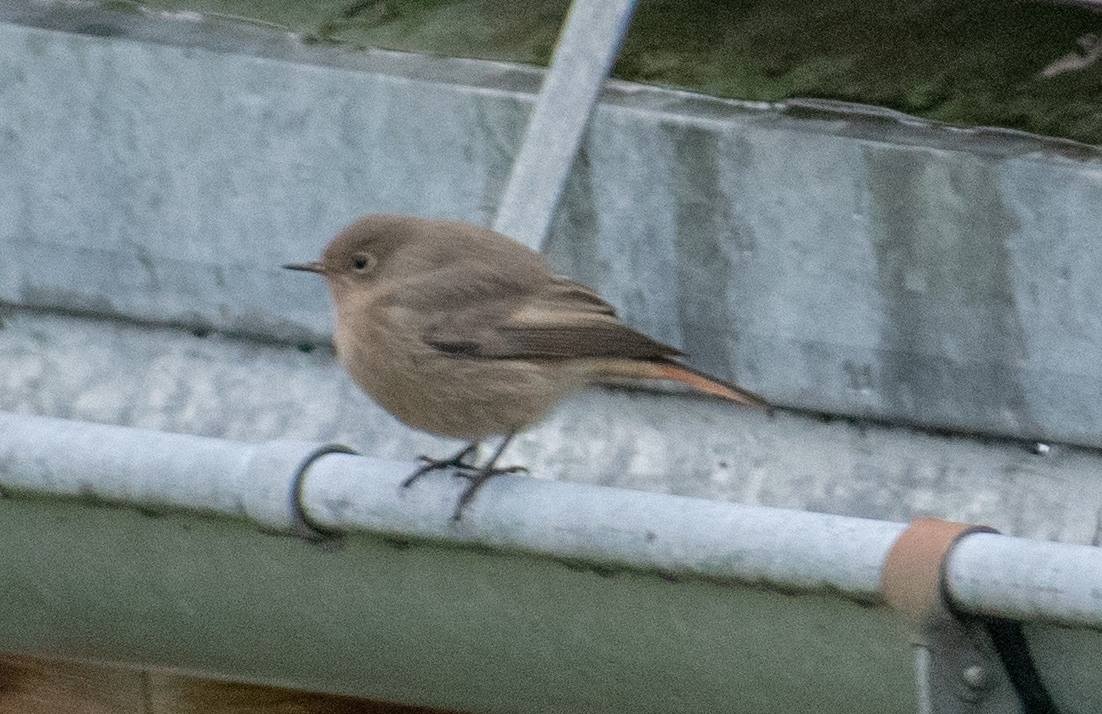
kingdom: Animalia
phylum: Chordata
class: Aves
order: Passeriformes
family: Muscicapidae
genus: Phoenicurus
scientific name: Phoenicurus ochruros
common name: Black redstart
